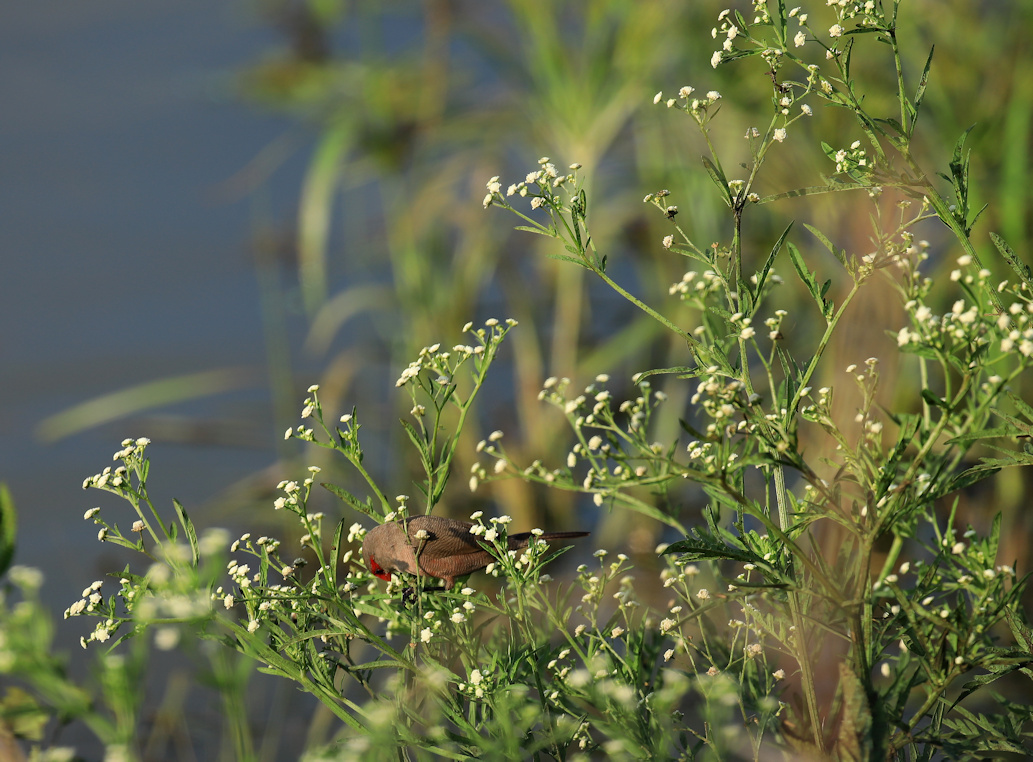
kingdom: Plantae
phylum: Tracheophyta
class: Magnoliopsida
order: Asterales
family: Asteraceae
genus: Parthenium
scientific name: Parthenium hysterophorus
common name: Santa maria feverfew
